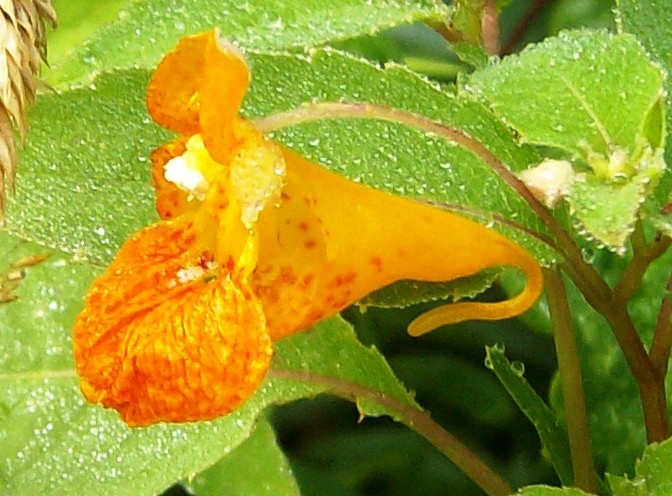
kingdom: Plantae
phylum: Tracheophyta
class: Magnoliopsida
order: Ericales
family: Balsaminaceae
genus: Impatiens
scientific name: Impatiens capensis
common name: Orange balsam
